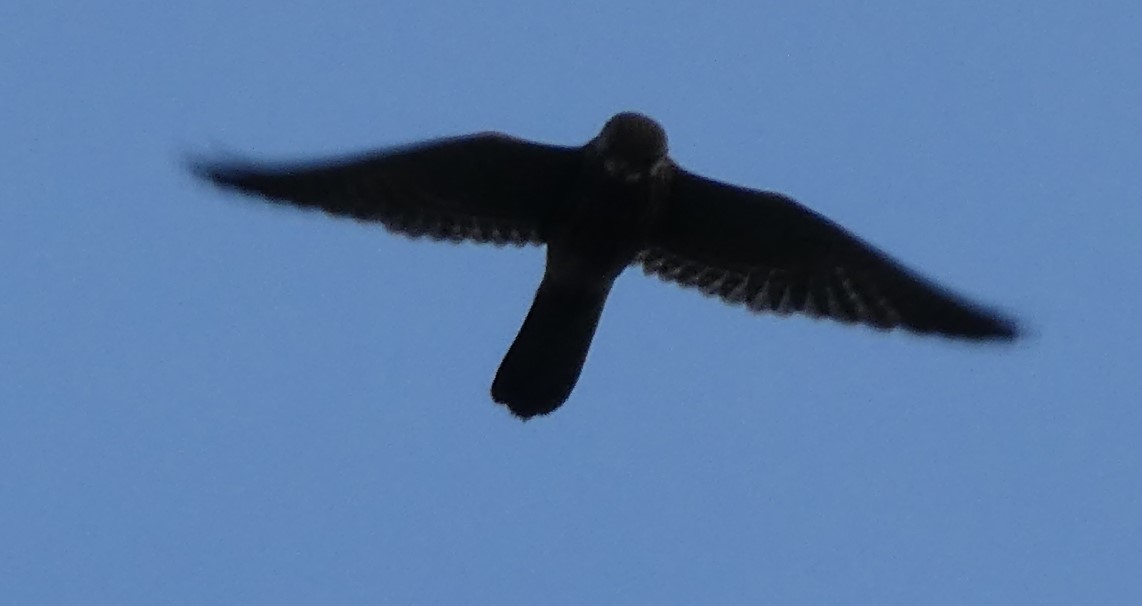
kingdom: Animalia
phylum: Chordata
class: Aves
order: Falconiformes
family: Falconidae
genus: Falco
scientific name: Falco tinnunculus
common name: Common kestrel
